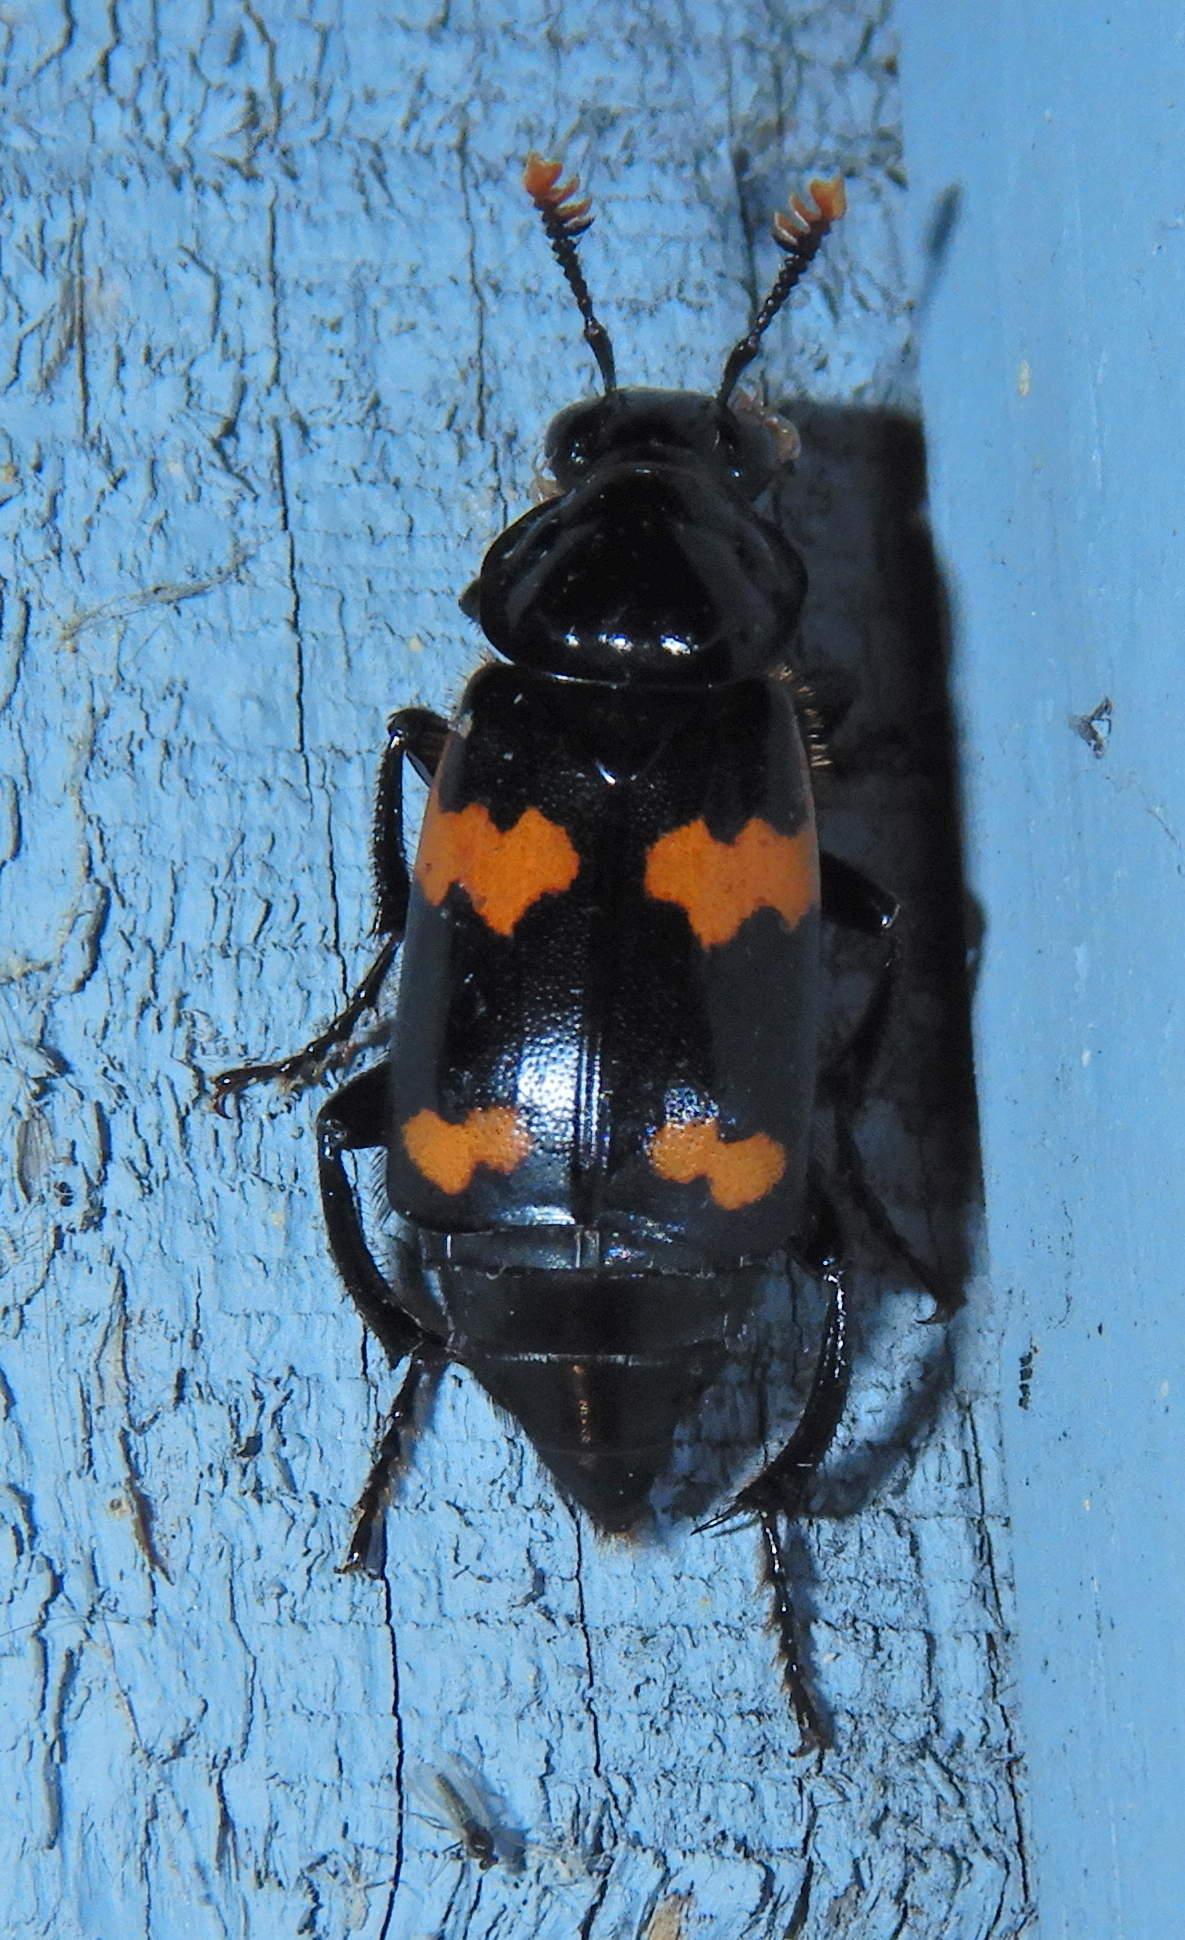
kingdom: Animalia
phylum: Arthropoda
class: Insecta
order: Coleoptera
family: Staphylinidae
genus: Nicrophorus
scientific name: Nicrophorus sayi
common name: Say's burying beetle
